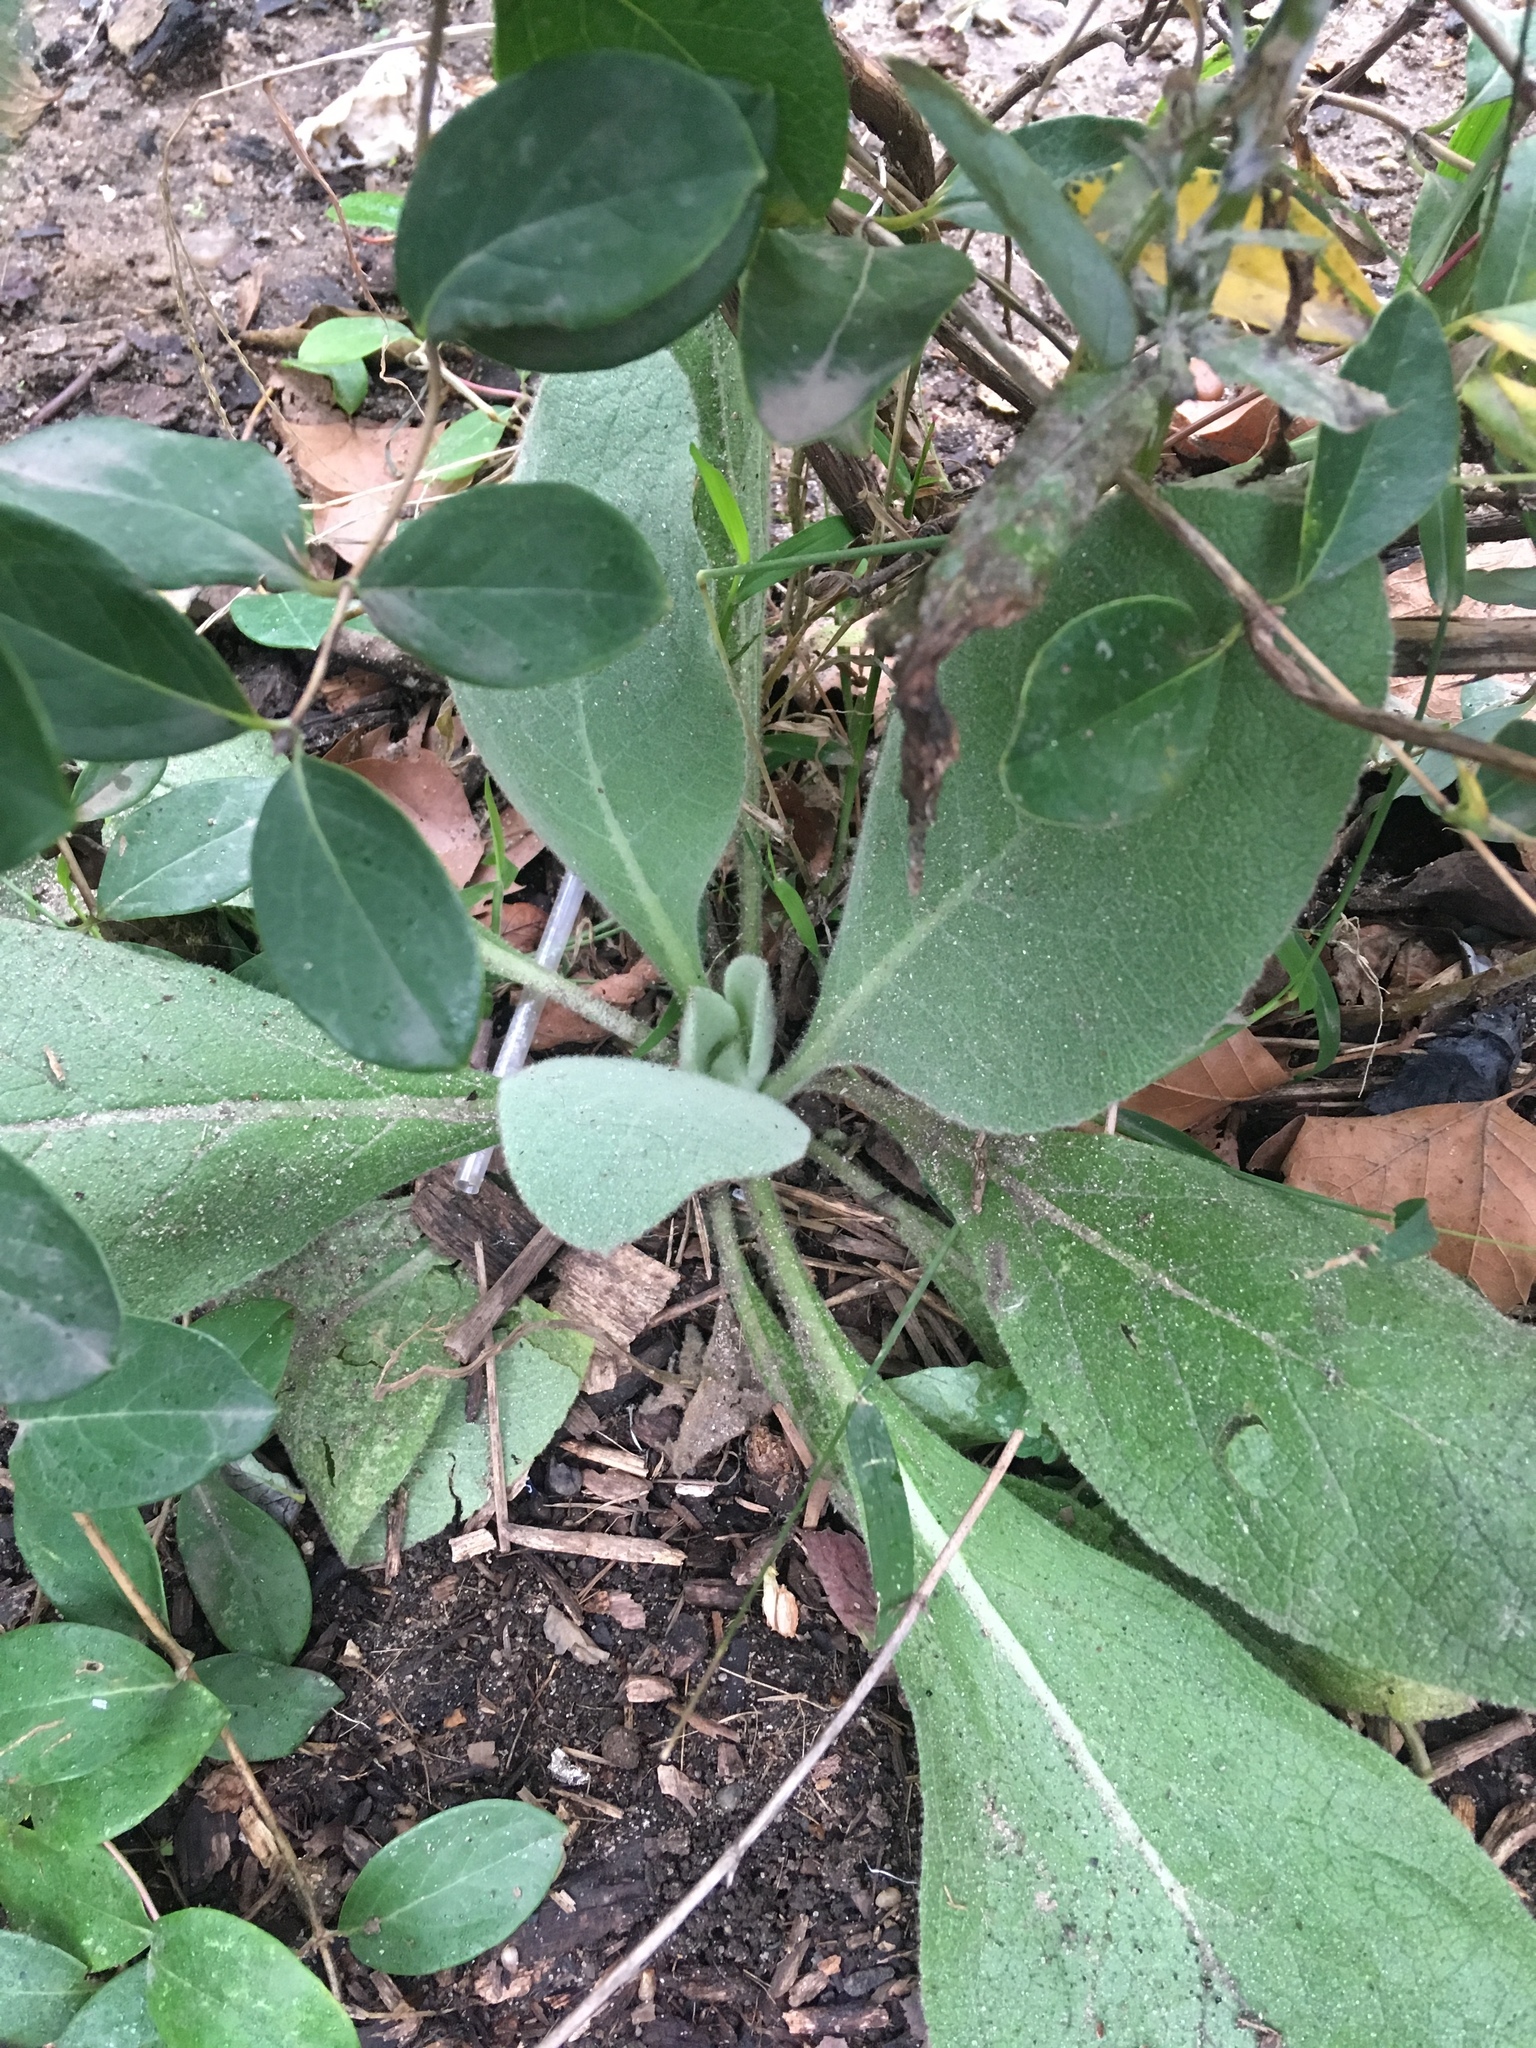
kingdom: Plantae
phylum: Tracheophyta
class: Magnoliopsida
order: Lamiales
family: Scrophulariaceae
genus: Verbascum
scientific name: Verbascum thapsus
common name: Common mullein
